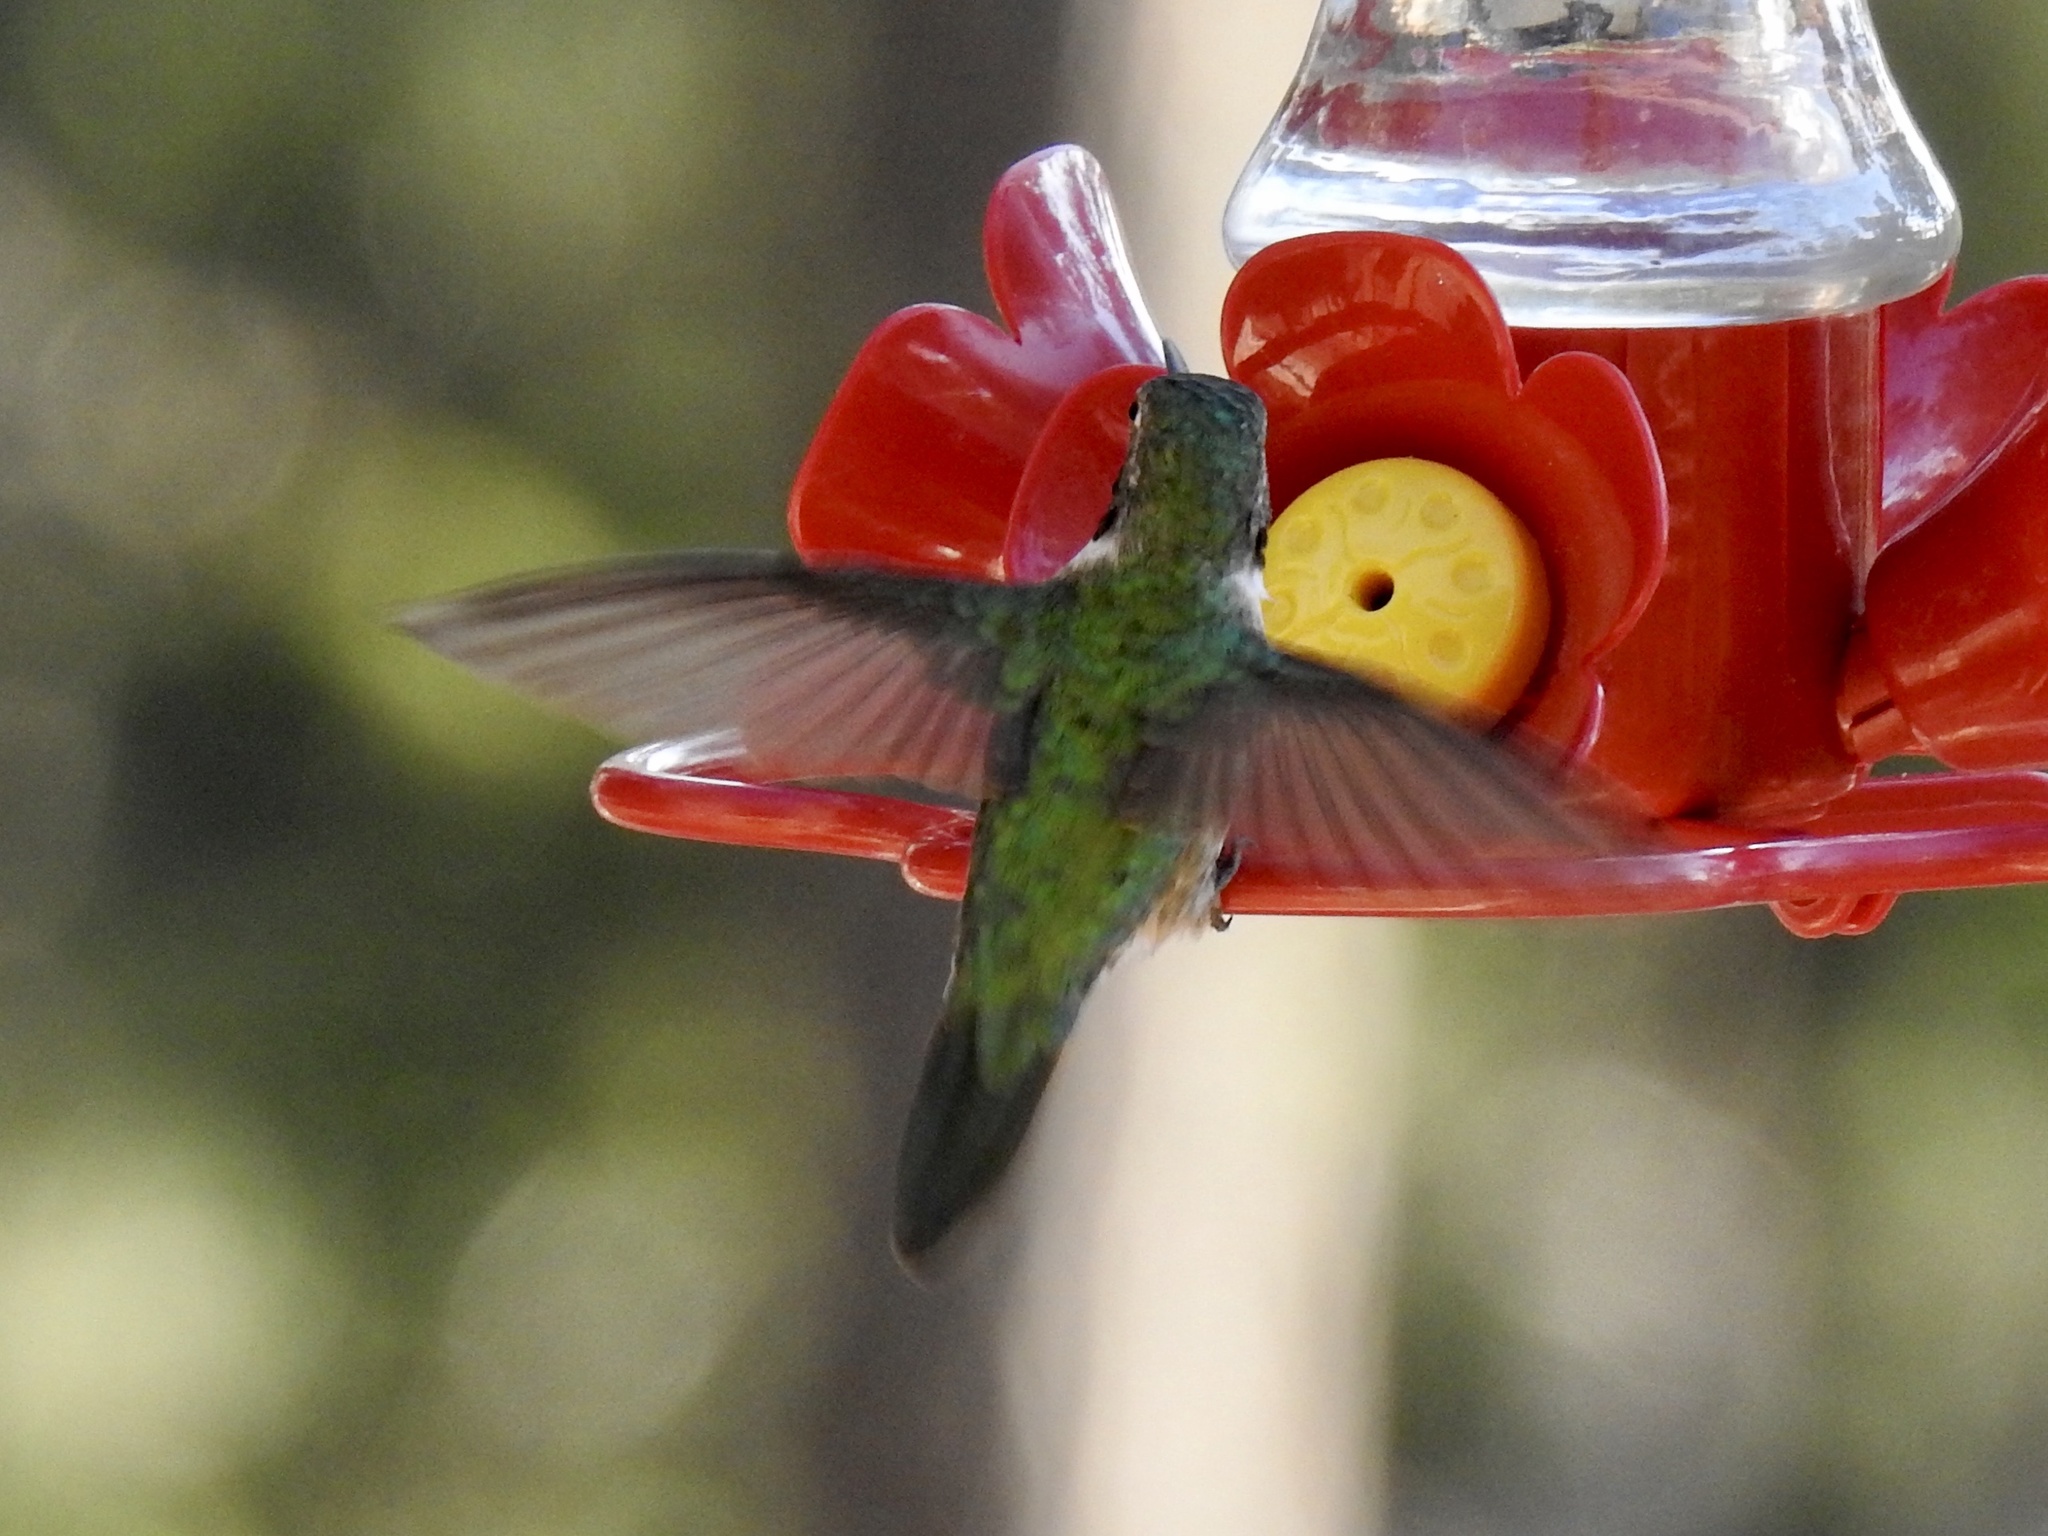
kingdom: Animalia
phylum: Chordata
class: Aves
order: Apodiformes
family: Trochilidae
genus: Selasphorus
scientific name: Selasphorus platycercus
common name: Broad-tailed hummingbird
